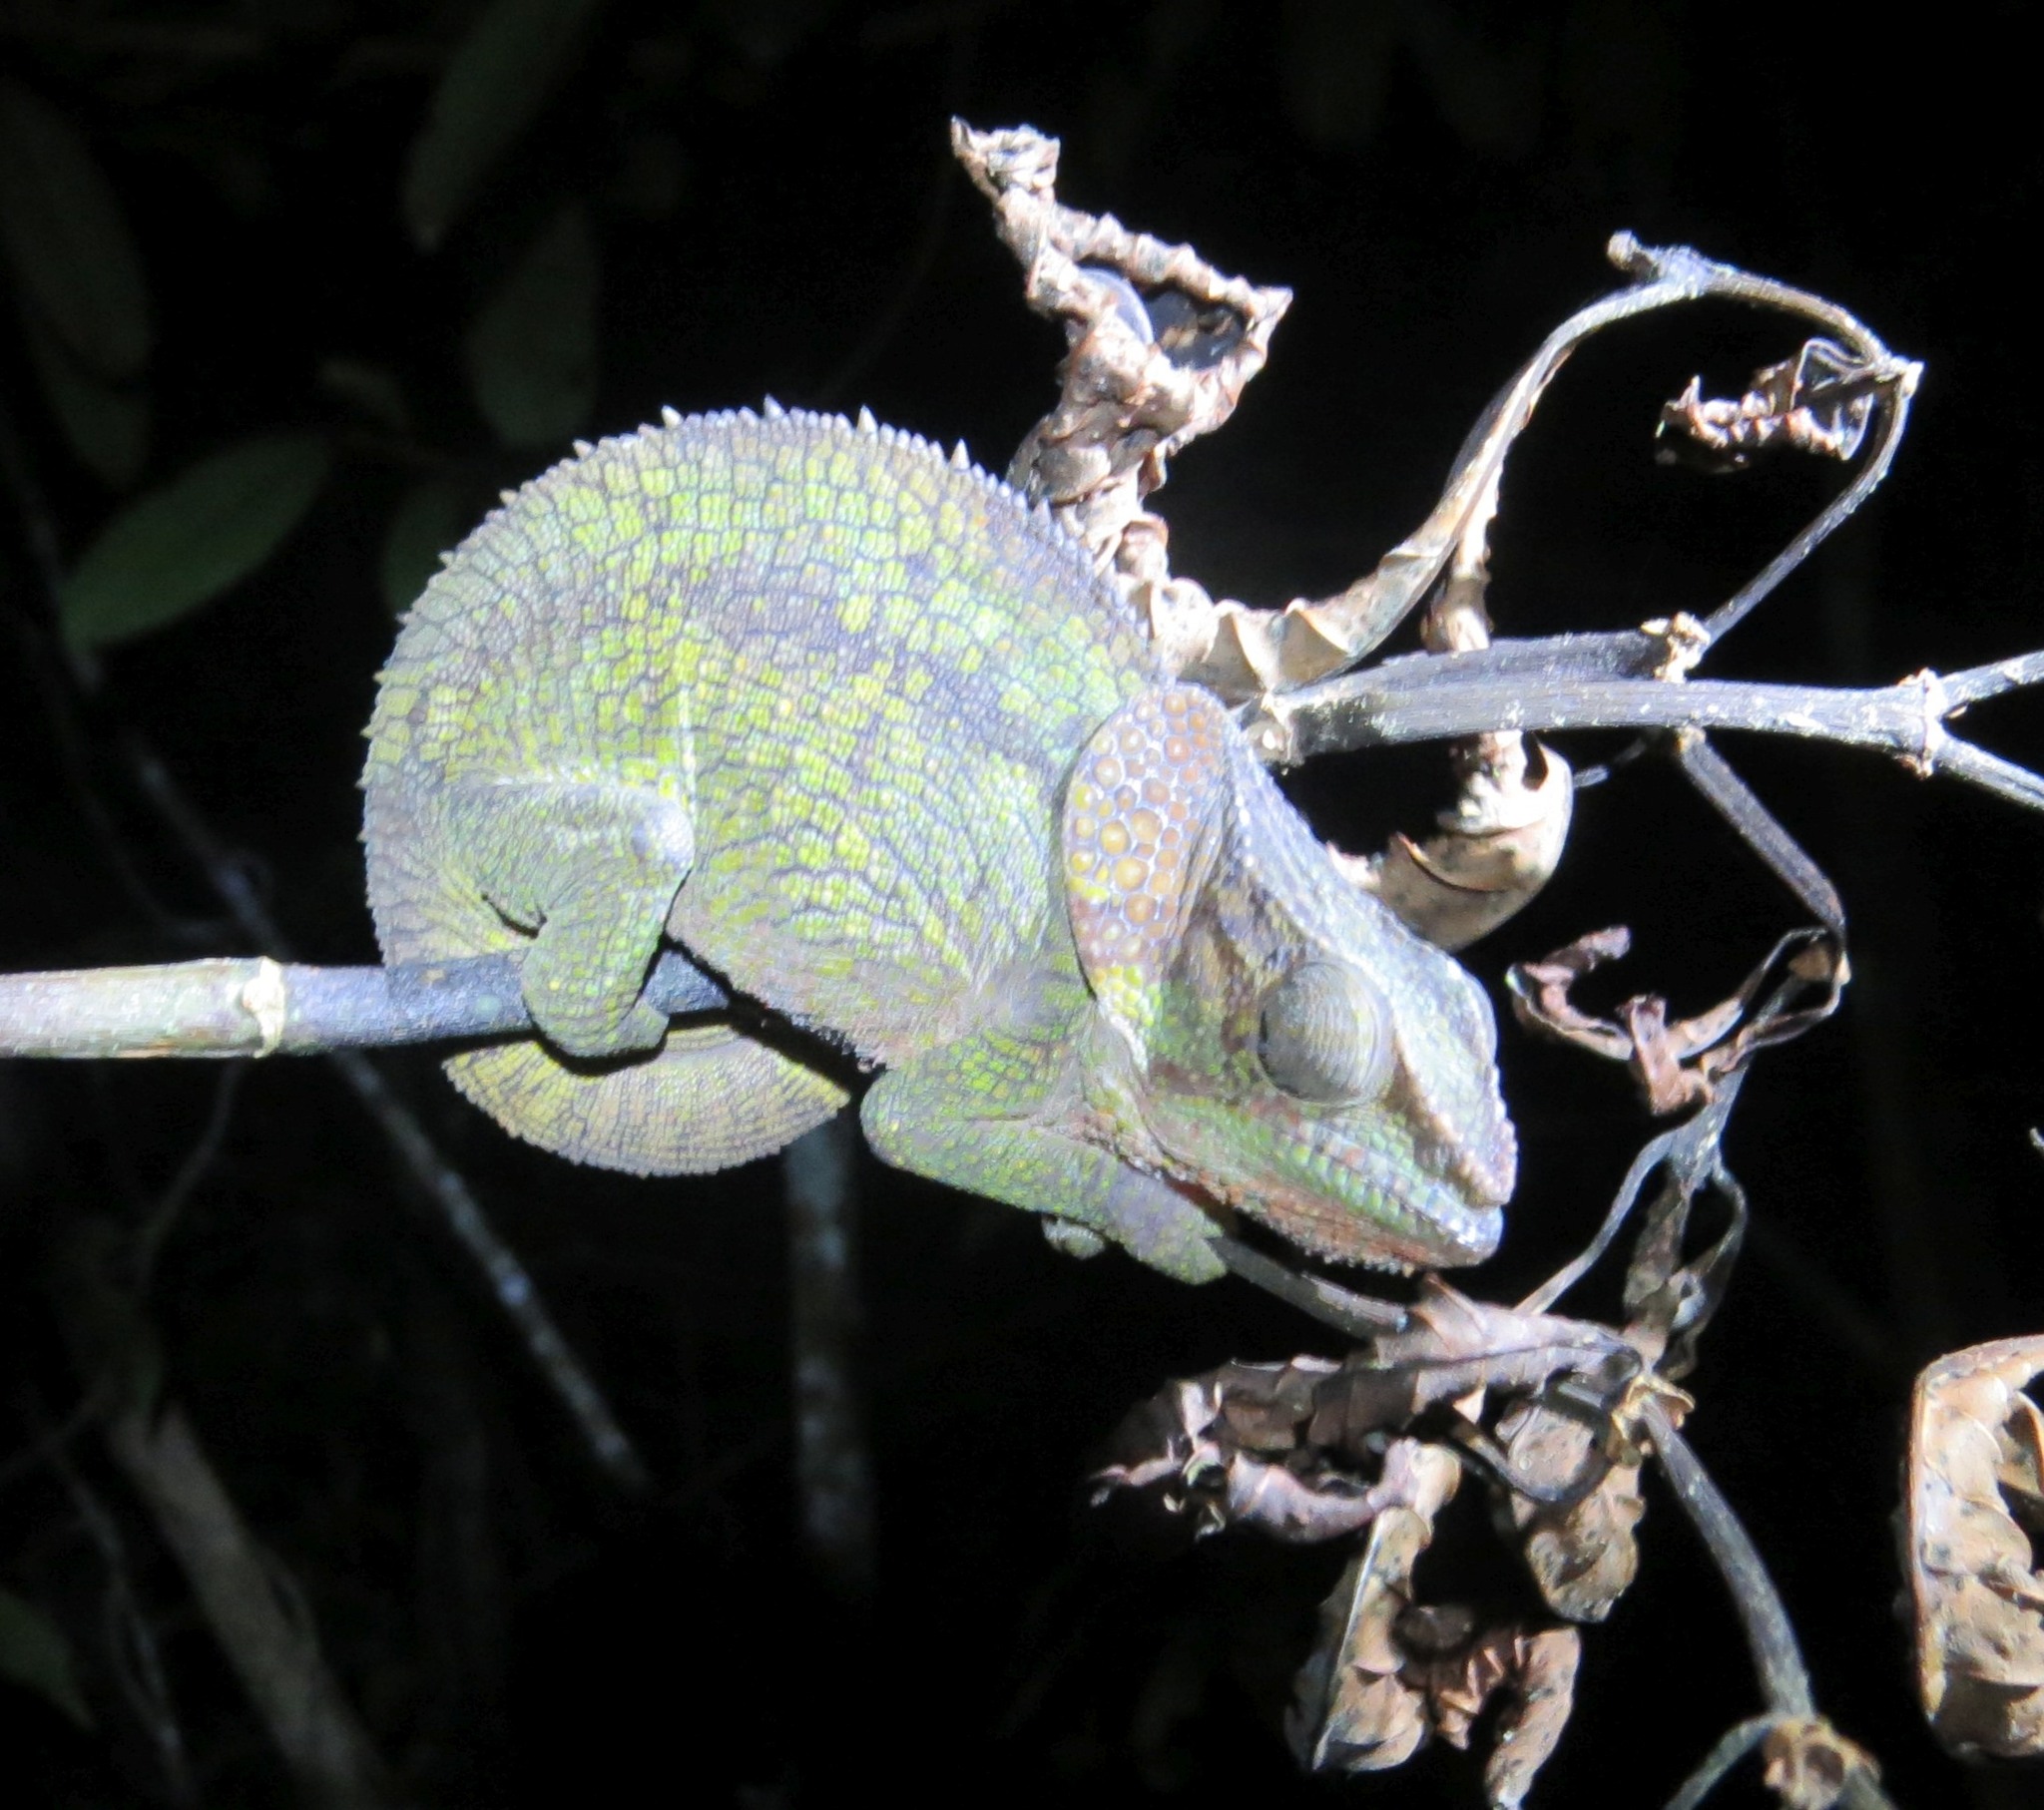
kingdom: Animalia
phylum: Chordata
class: Squamata
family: Chamaeleonidae
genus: Calumma
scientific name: Calumma brevicorne
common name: Short-horned chameleon
